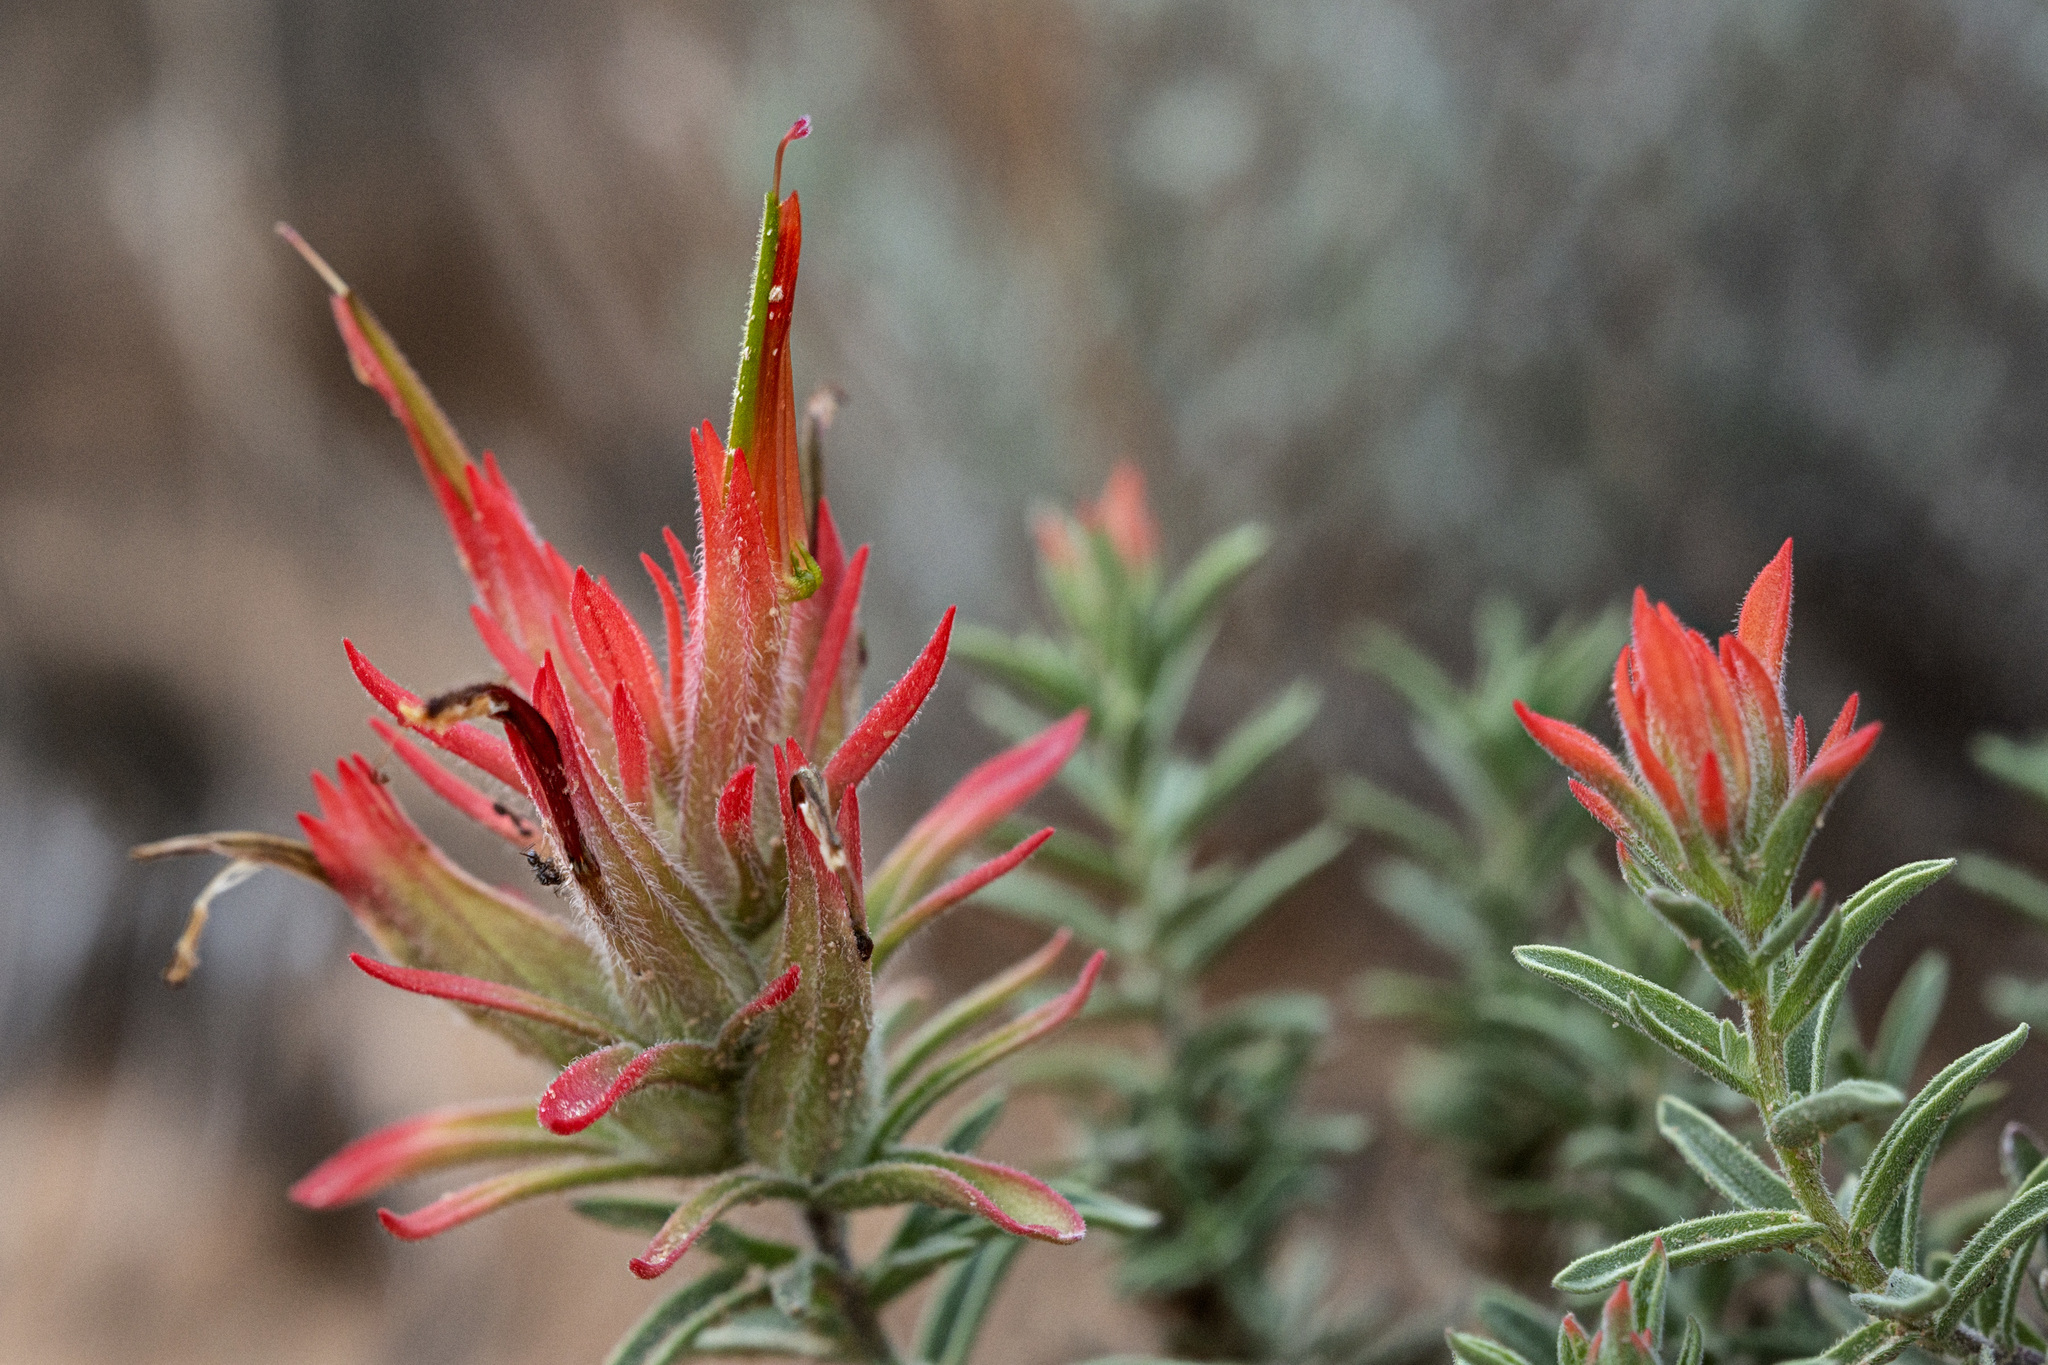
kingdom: Plantae
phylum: Tracheophyta
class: Magnoliopsida
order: Lamiales
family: Orobanchaceae
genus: Castilleja
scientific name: Castilleja scabrida
